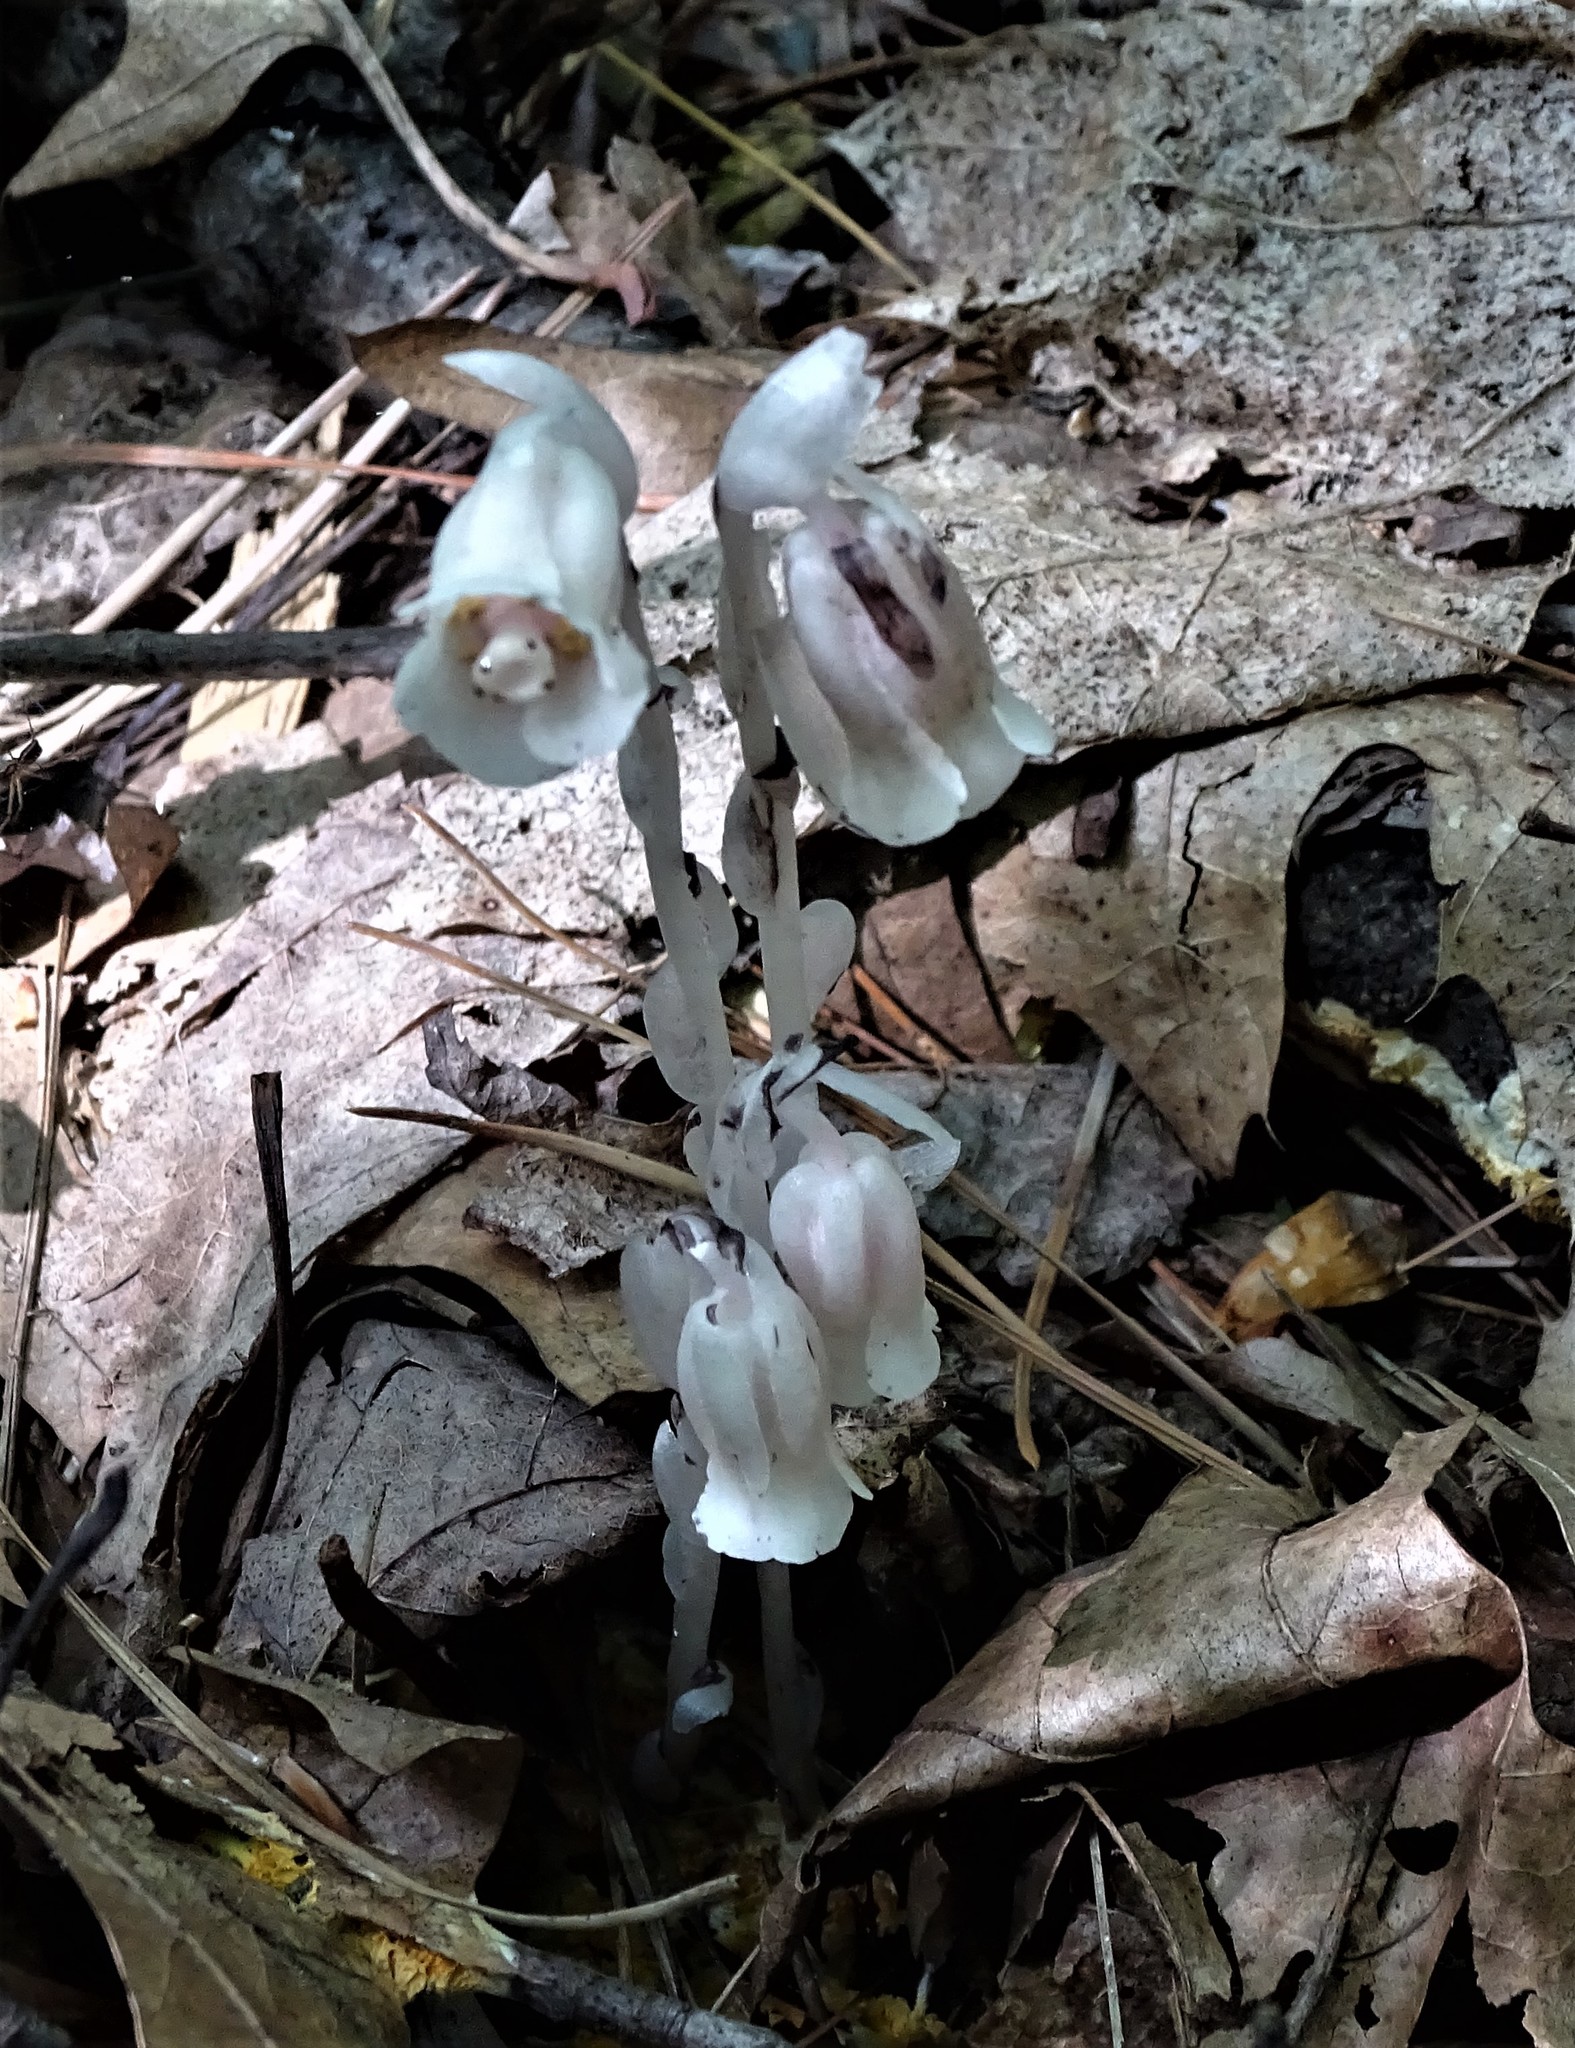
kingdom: Plantae
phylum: Tracheophyta
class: Magnoliopsida
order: Ericales
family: Ericaceae
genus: Monotropa
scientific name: Monotropa uniflora
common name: Convulsion root
